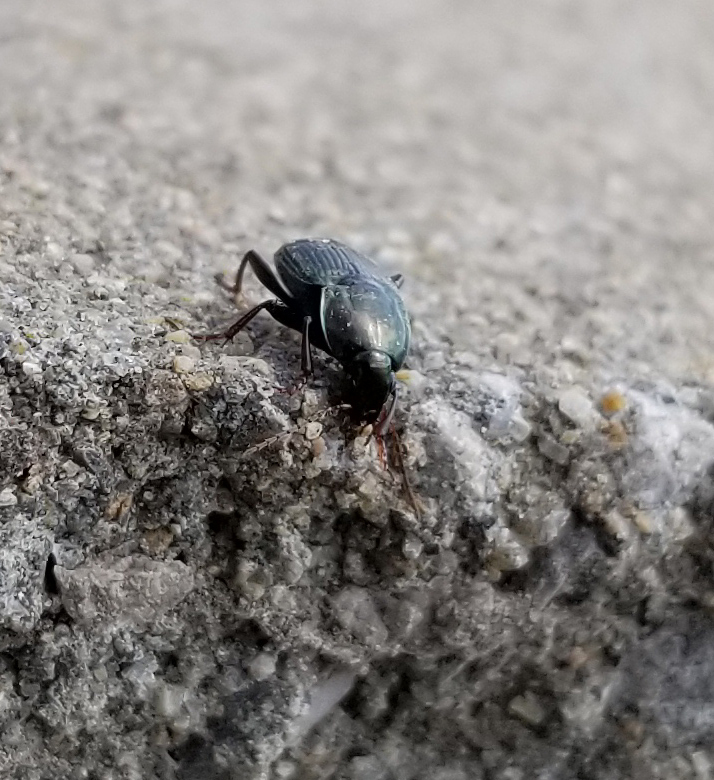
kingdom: Animalia
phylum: Arthropoda
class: Insecta
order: Coleoptera
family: Carabidae
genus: Poecilus
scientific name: Poecilus lucublandus
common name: Woodland ground beetle
